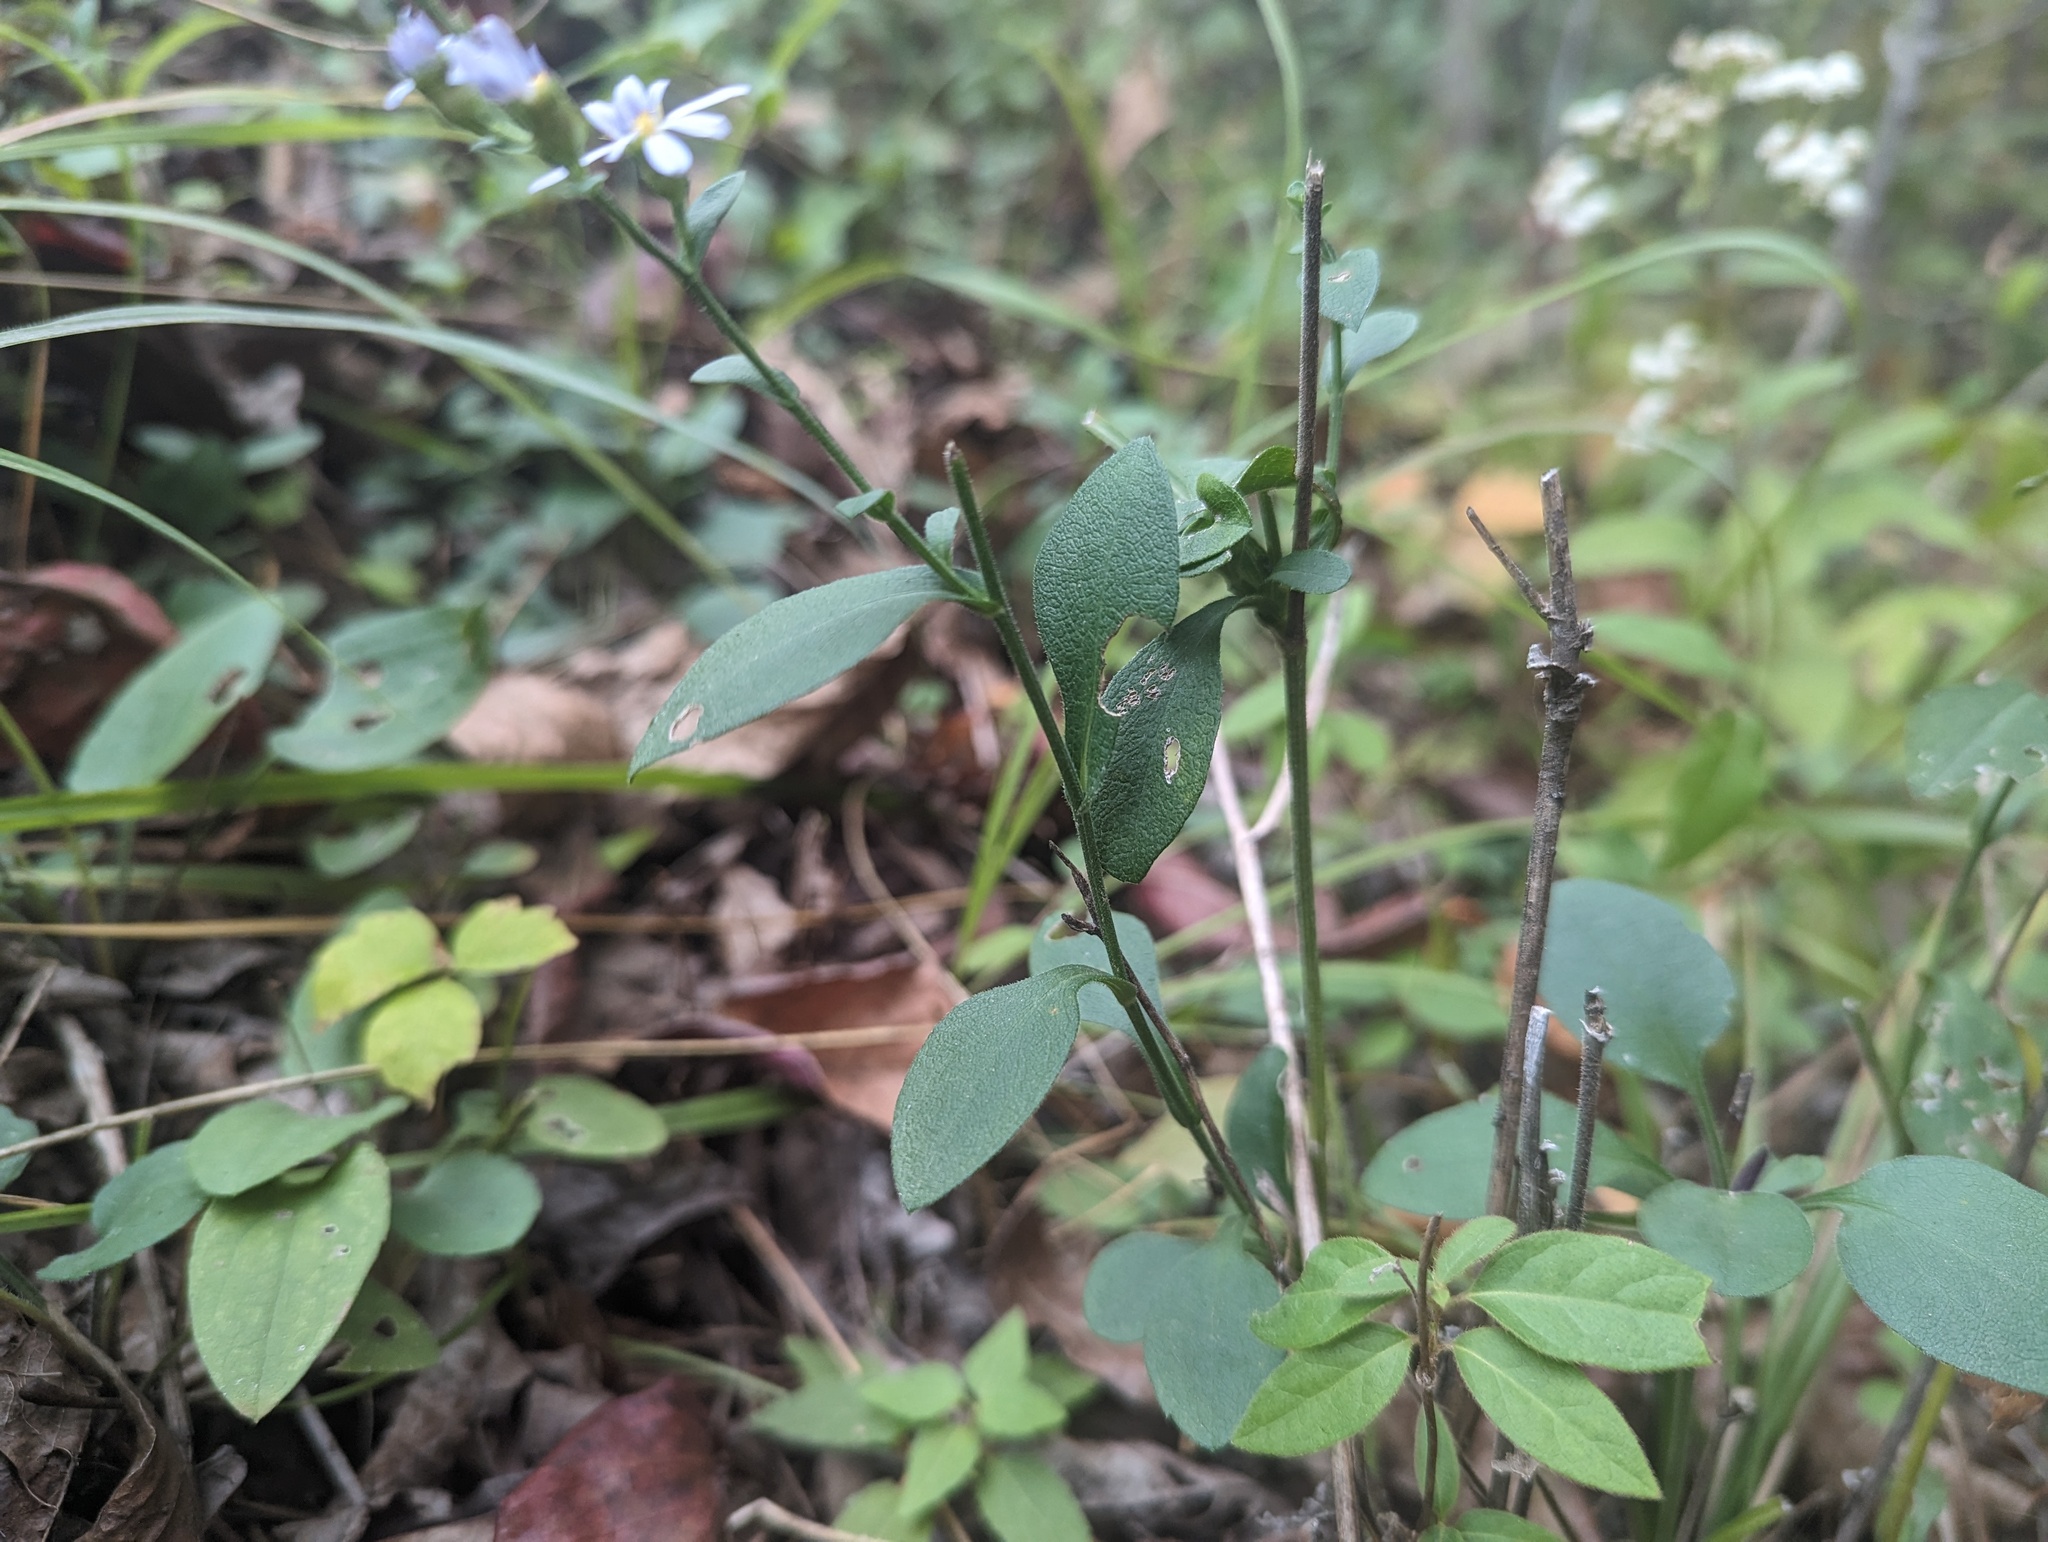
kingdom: Plantae
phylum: Tracheophyta
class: Magnoliopsida
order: Asterales
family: Asteraceae
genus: Symphyotrichum
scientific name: Symphyotrichum undulatum
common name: Clasping heart-leaf aster
